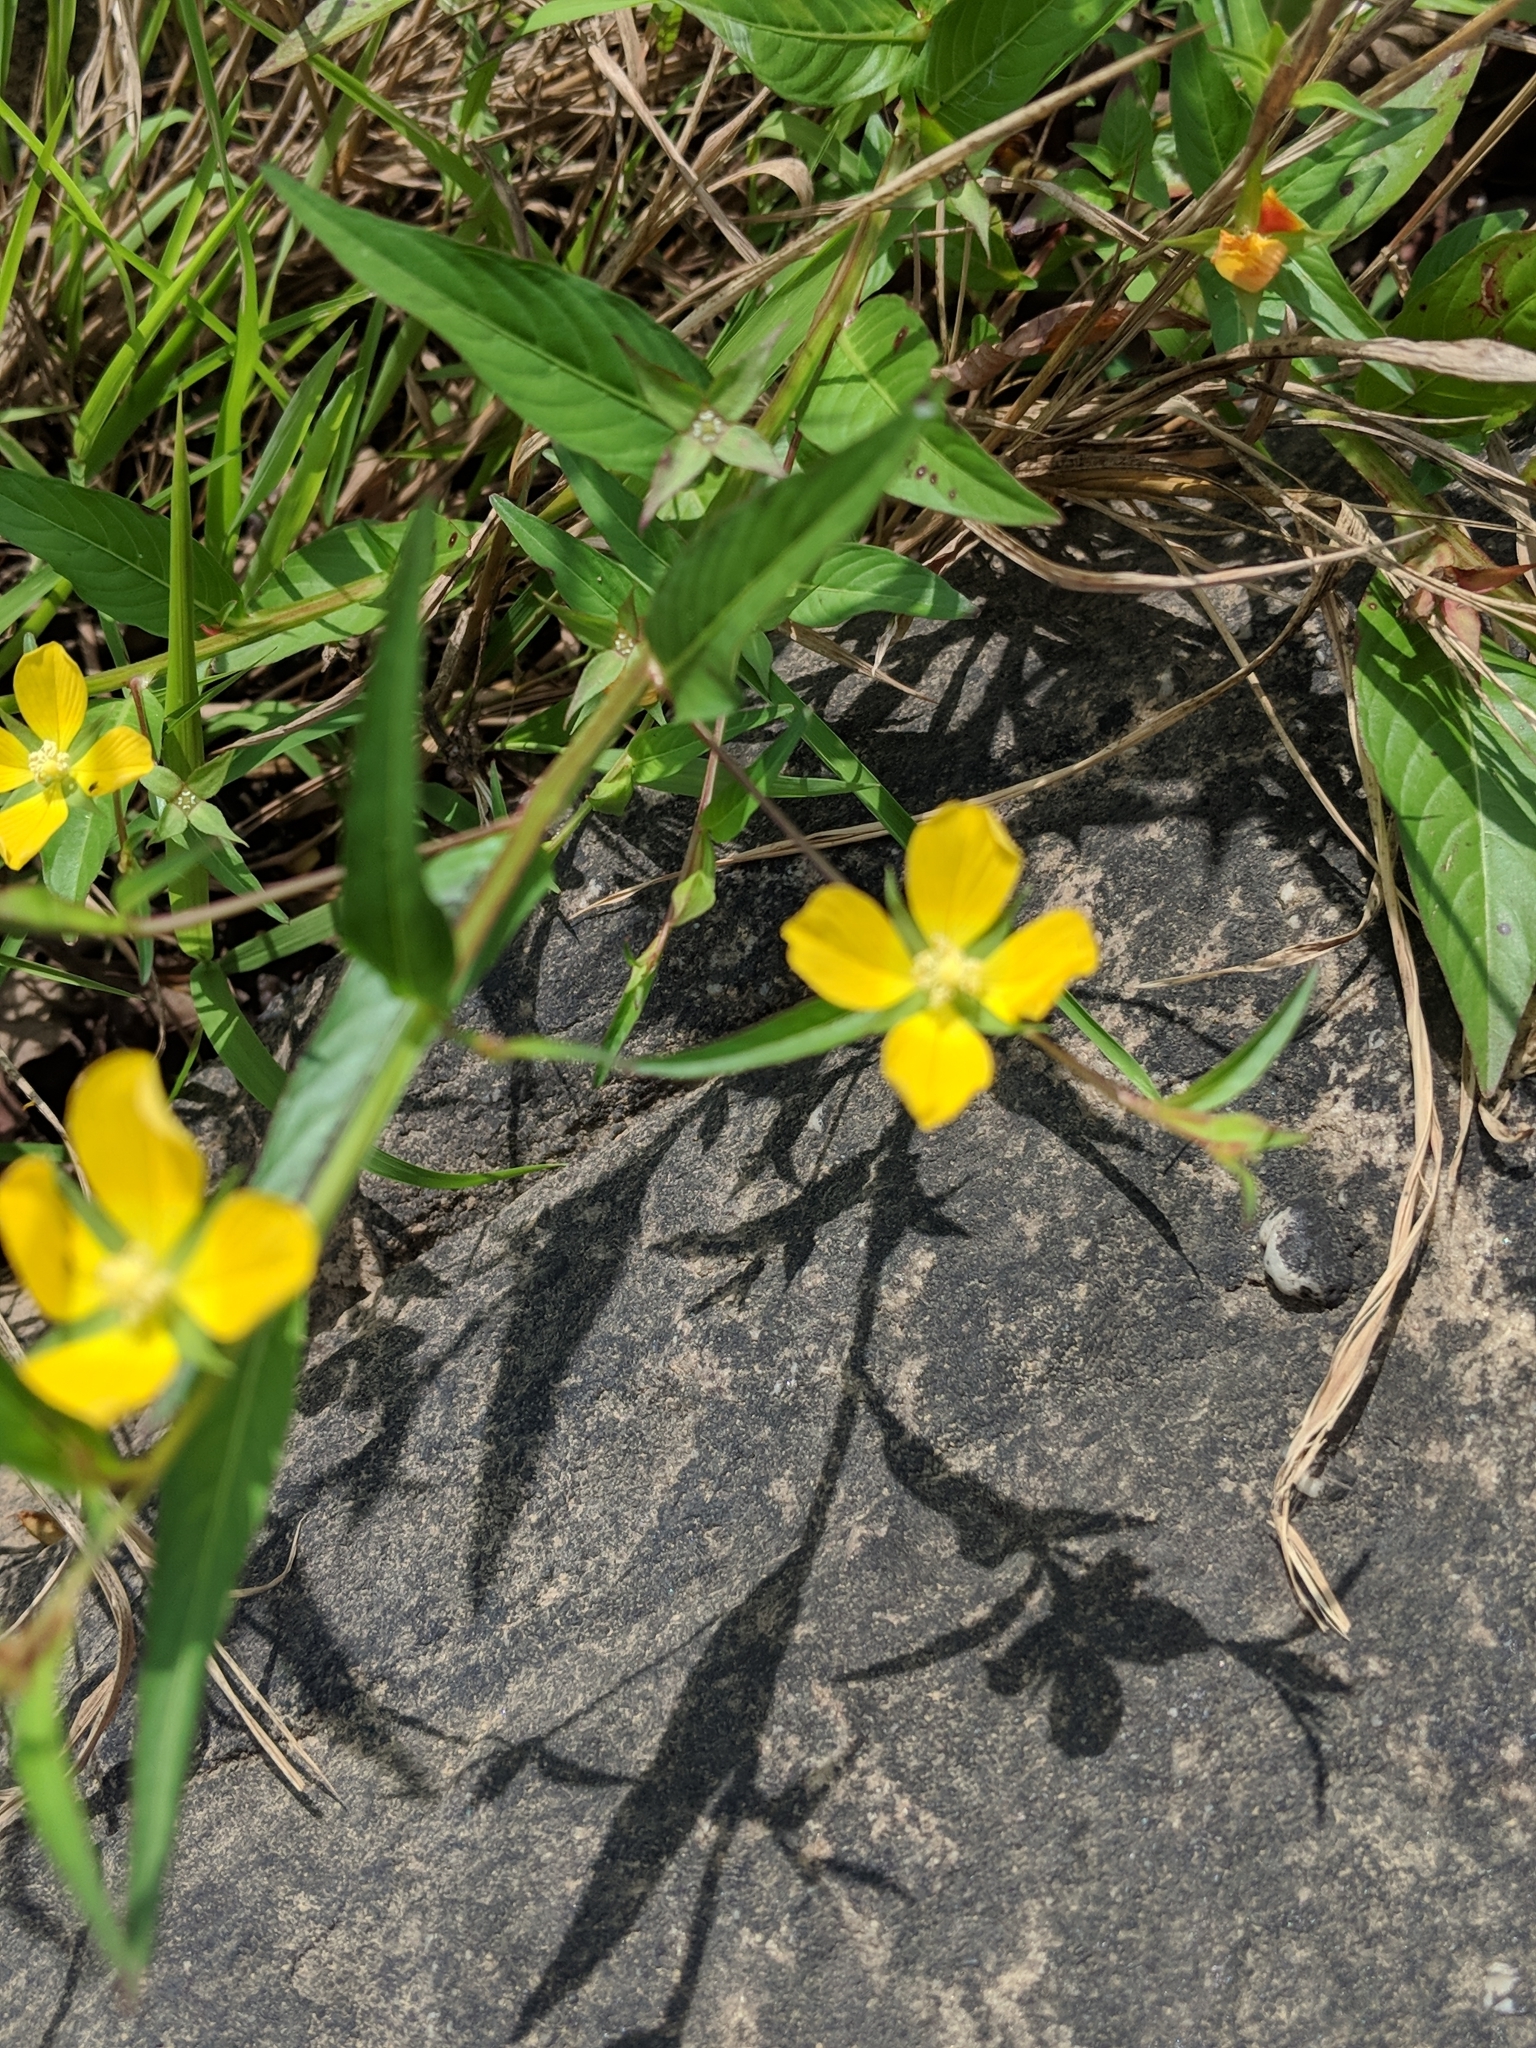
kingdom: Plantae
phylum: Tracheophyta
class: Magnoliopsida
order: Myrtales
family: Onagraceae
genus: Ludwigia
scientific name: Ludwigia decurrens
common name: Winged water-primrose
